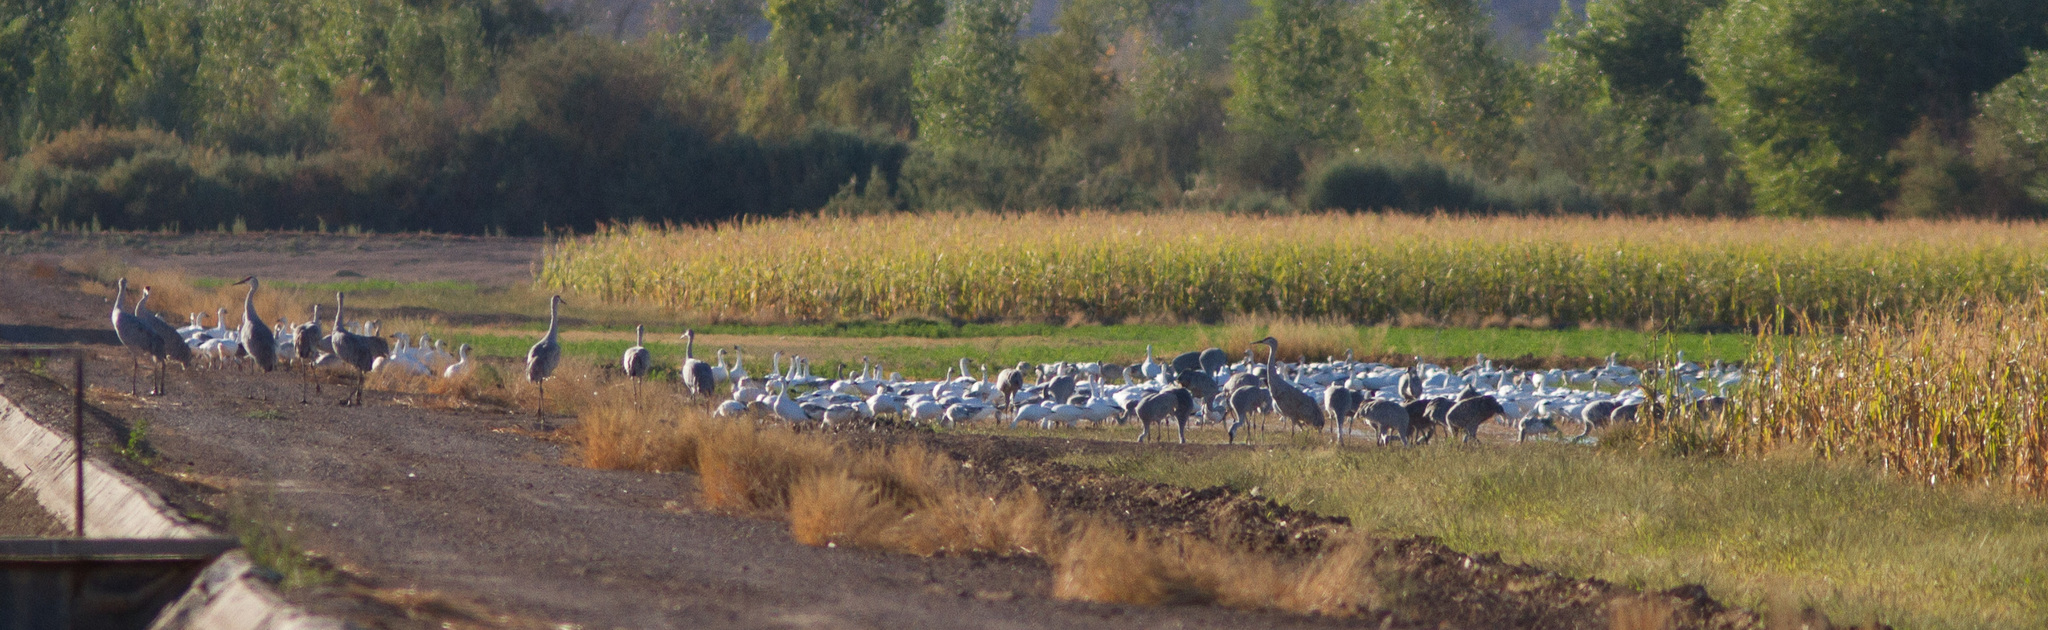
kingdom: Animalia
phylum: Chordata
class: Aves
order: Anseriformes
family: Anatidae
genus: Anser
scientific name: Anser caerulescens
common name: Snow goose
